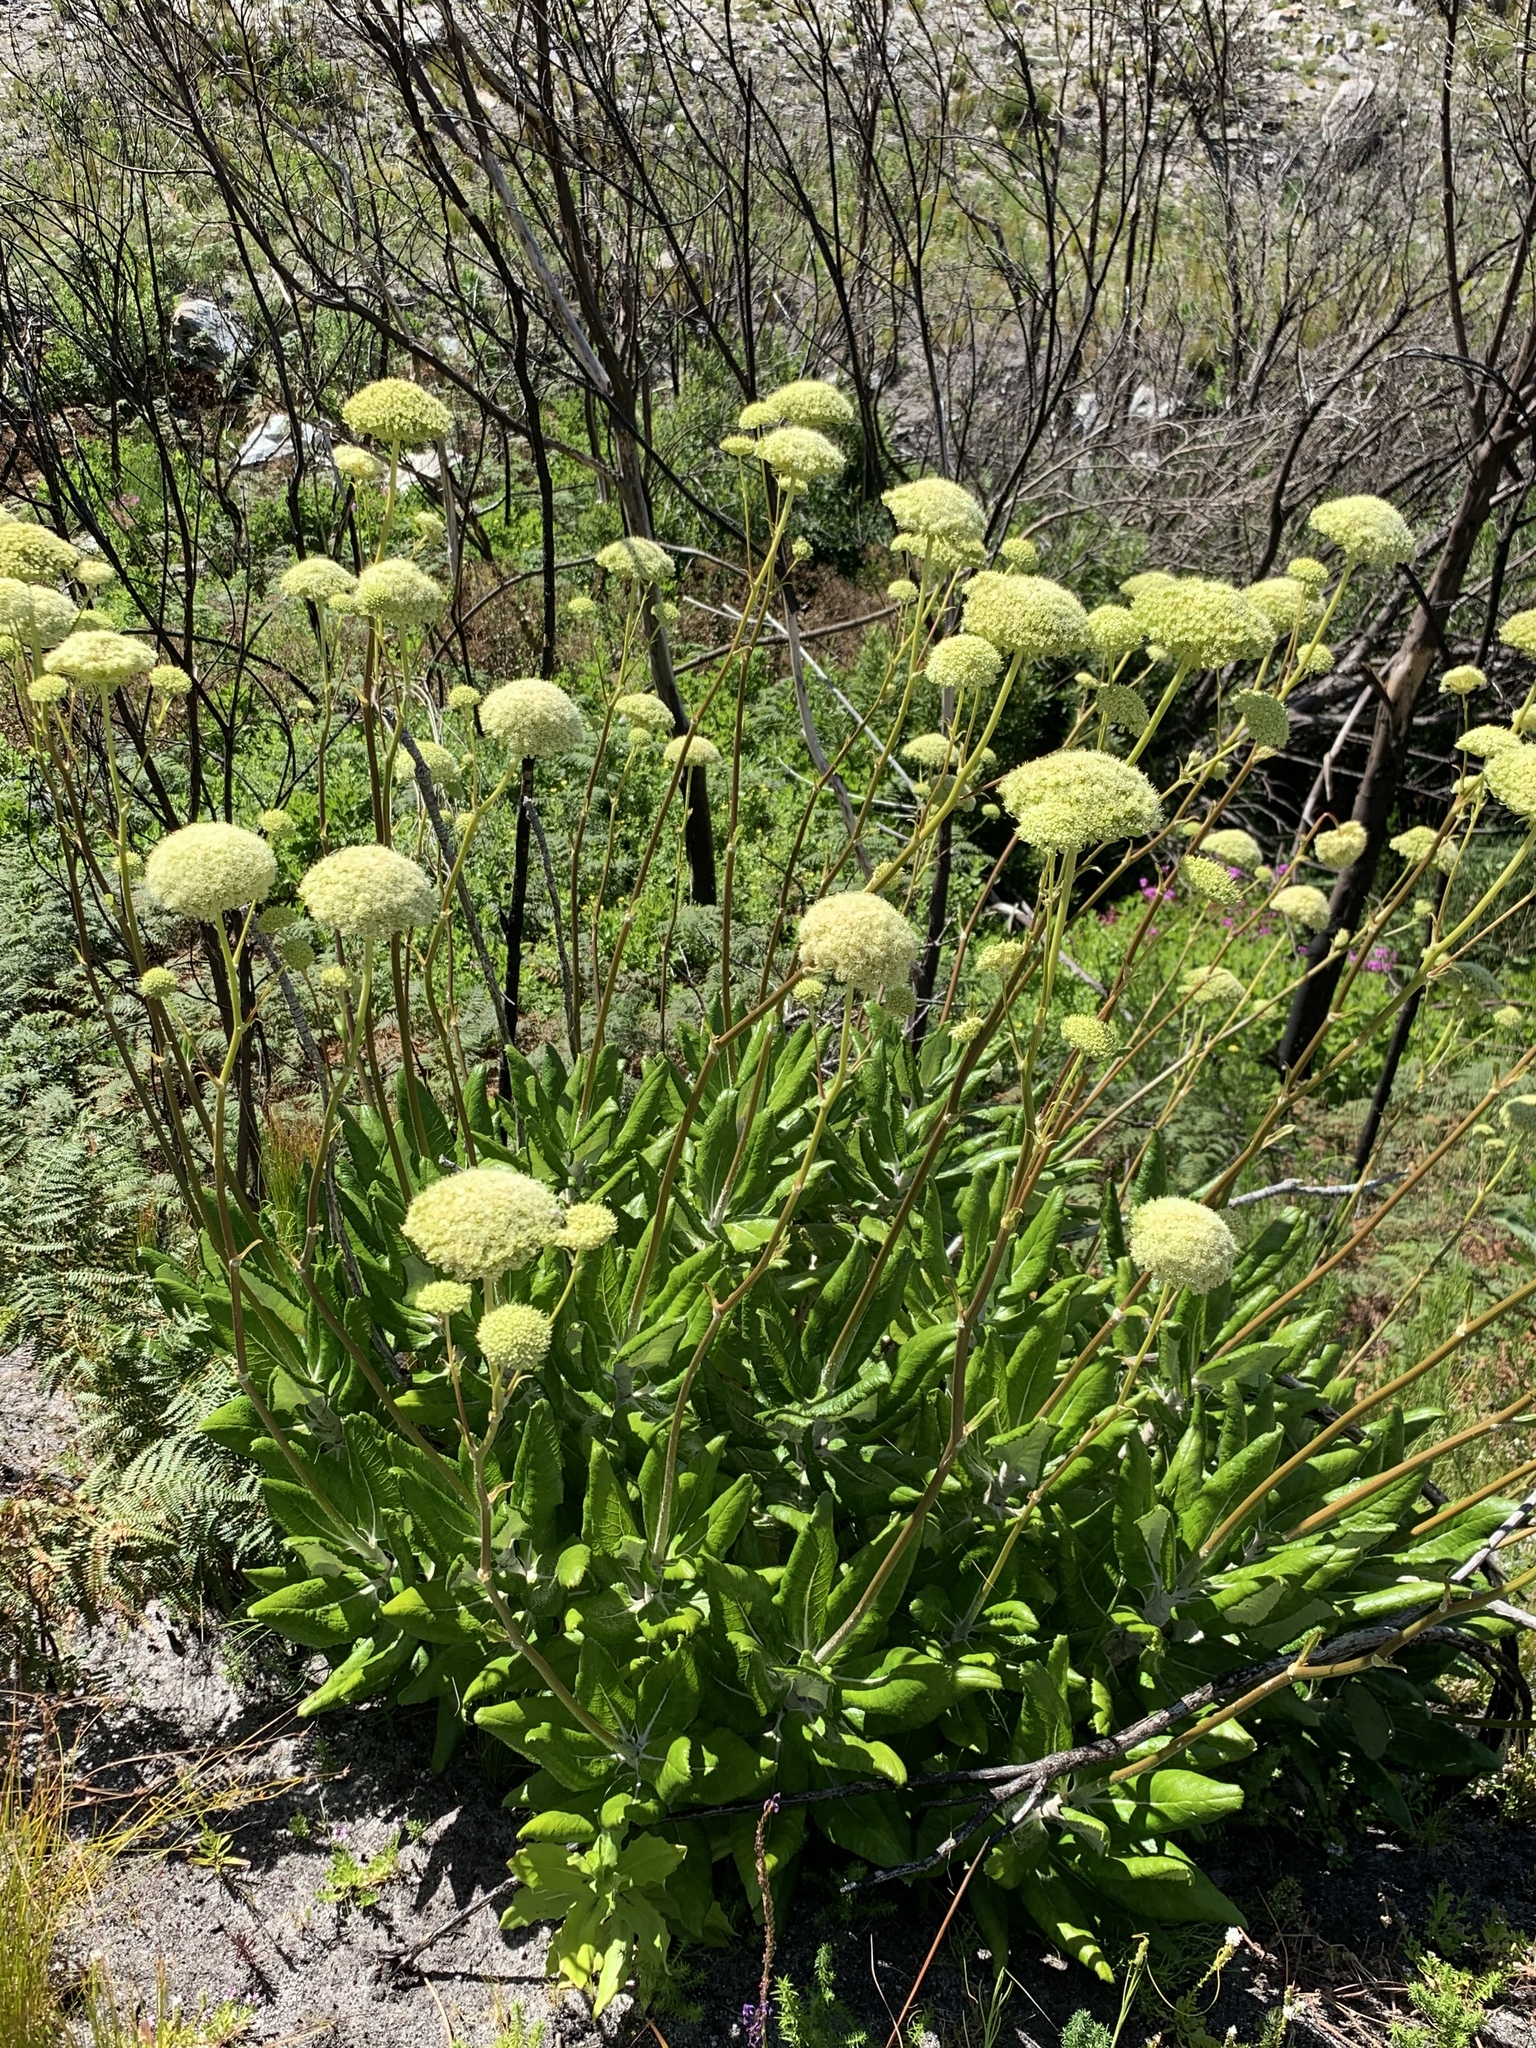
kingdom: Plantae
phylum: Tracheophyta
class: Magnoliopsida
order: Apiales
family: Apiaceae
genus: Hermas
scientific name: Hermas villosa
